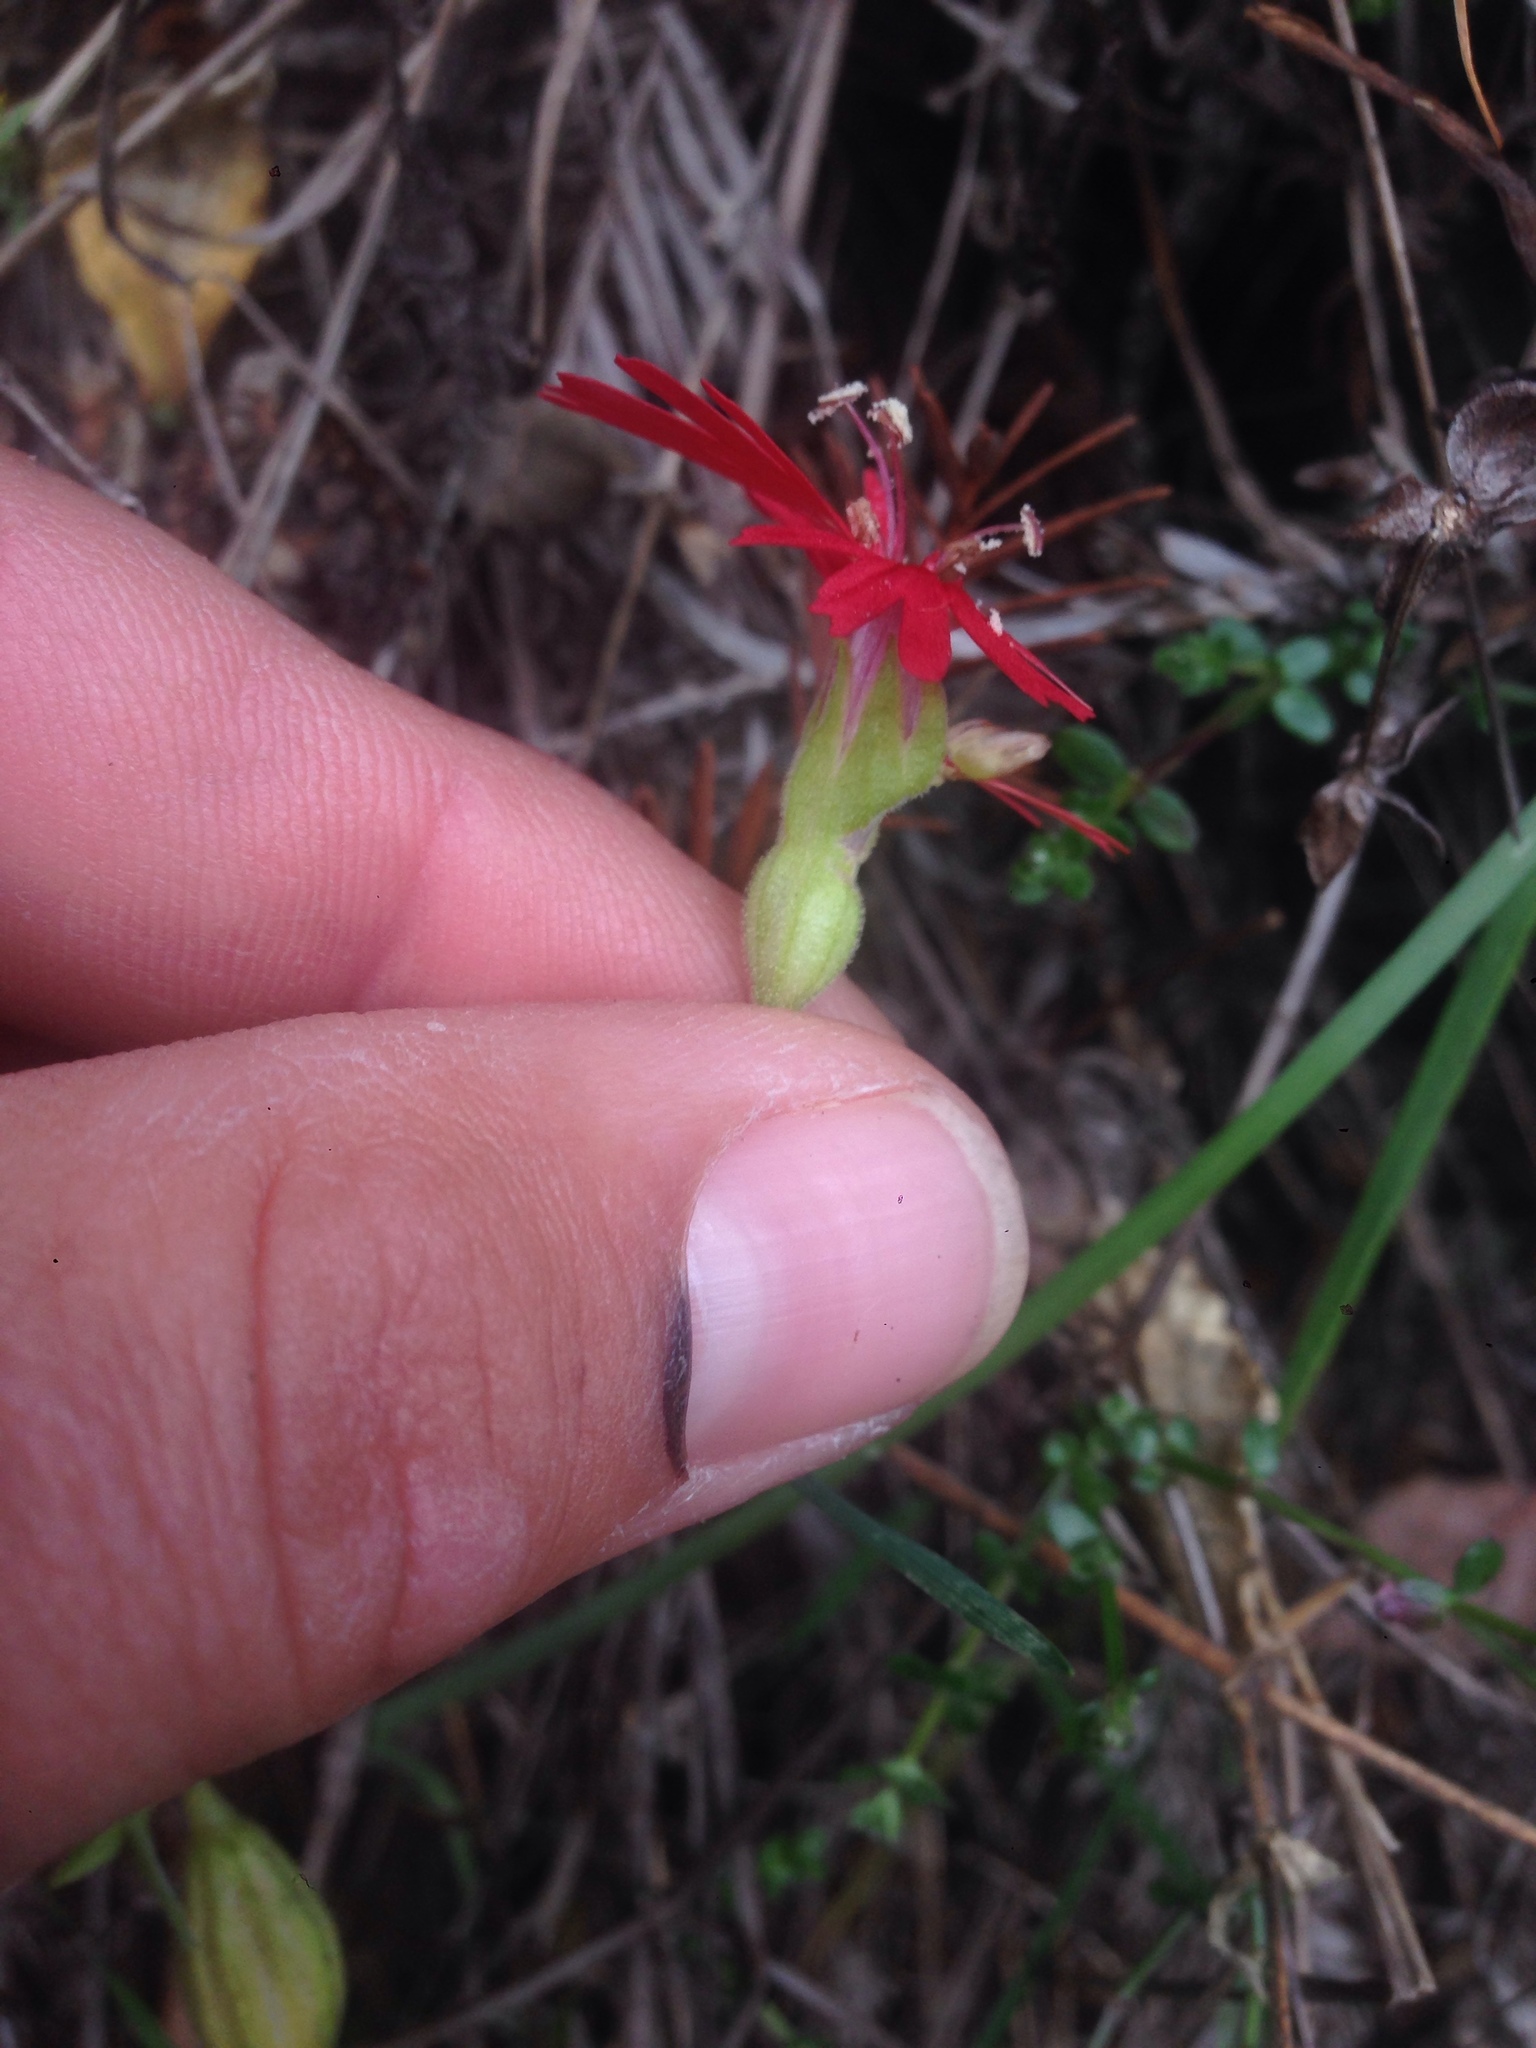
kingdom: Plantae
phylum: Tracheophyta
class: Magnoliopsida
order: Caryophyllales
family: Caryophyllaceae
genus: Silene
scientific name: Silene laciniata
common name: Indian-pink
